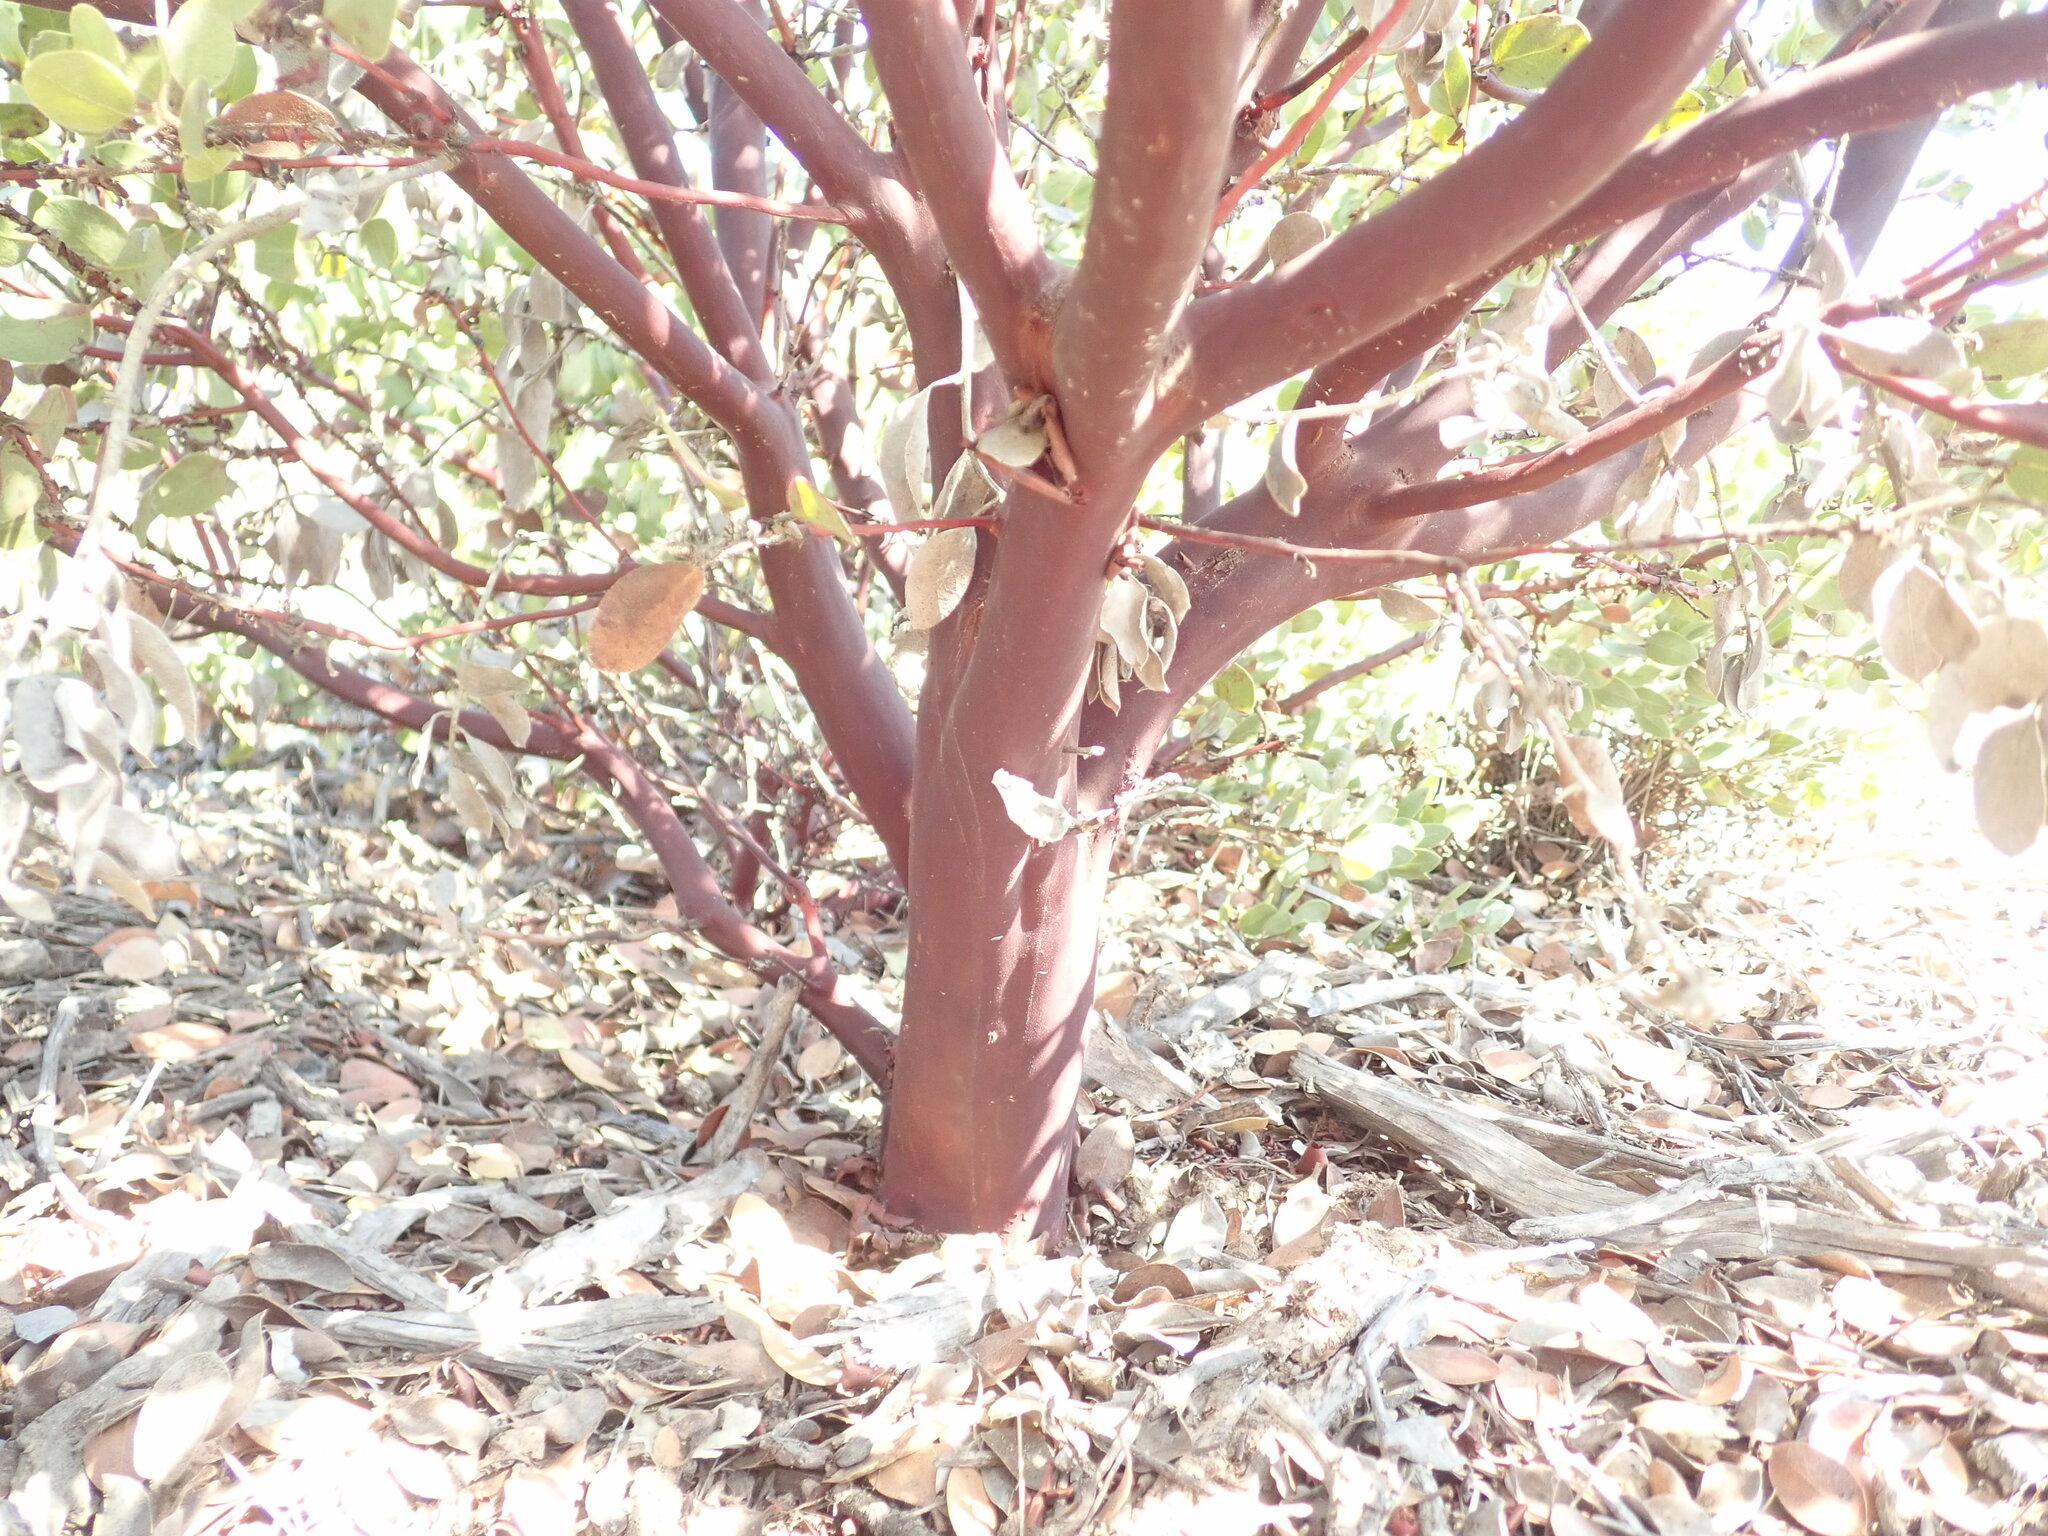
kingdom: Plantae
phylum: Tracheophyta
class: Magnoliopsida
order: Ericales
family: Ericaceae
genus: Arctostaphylos
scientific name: Arctostaphylos montereyensis
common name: Monterey manzanita
